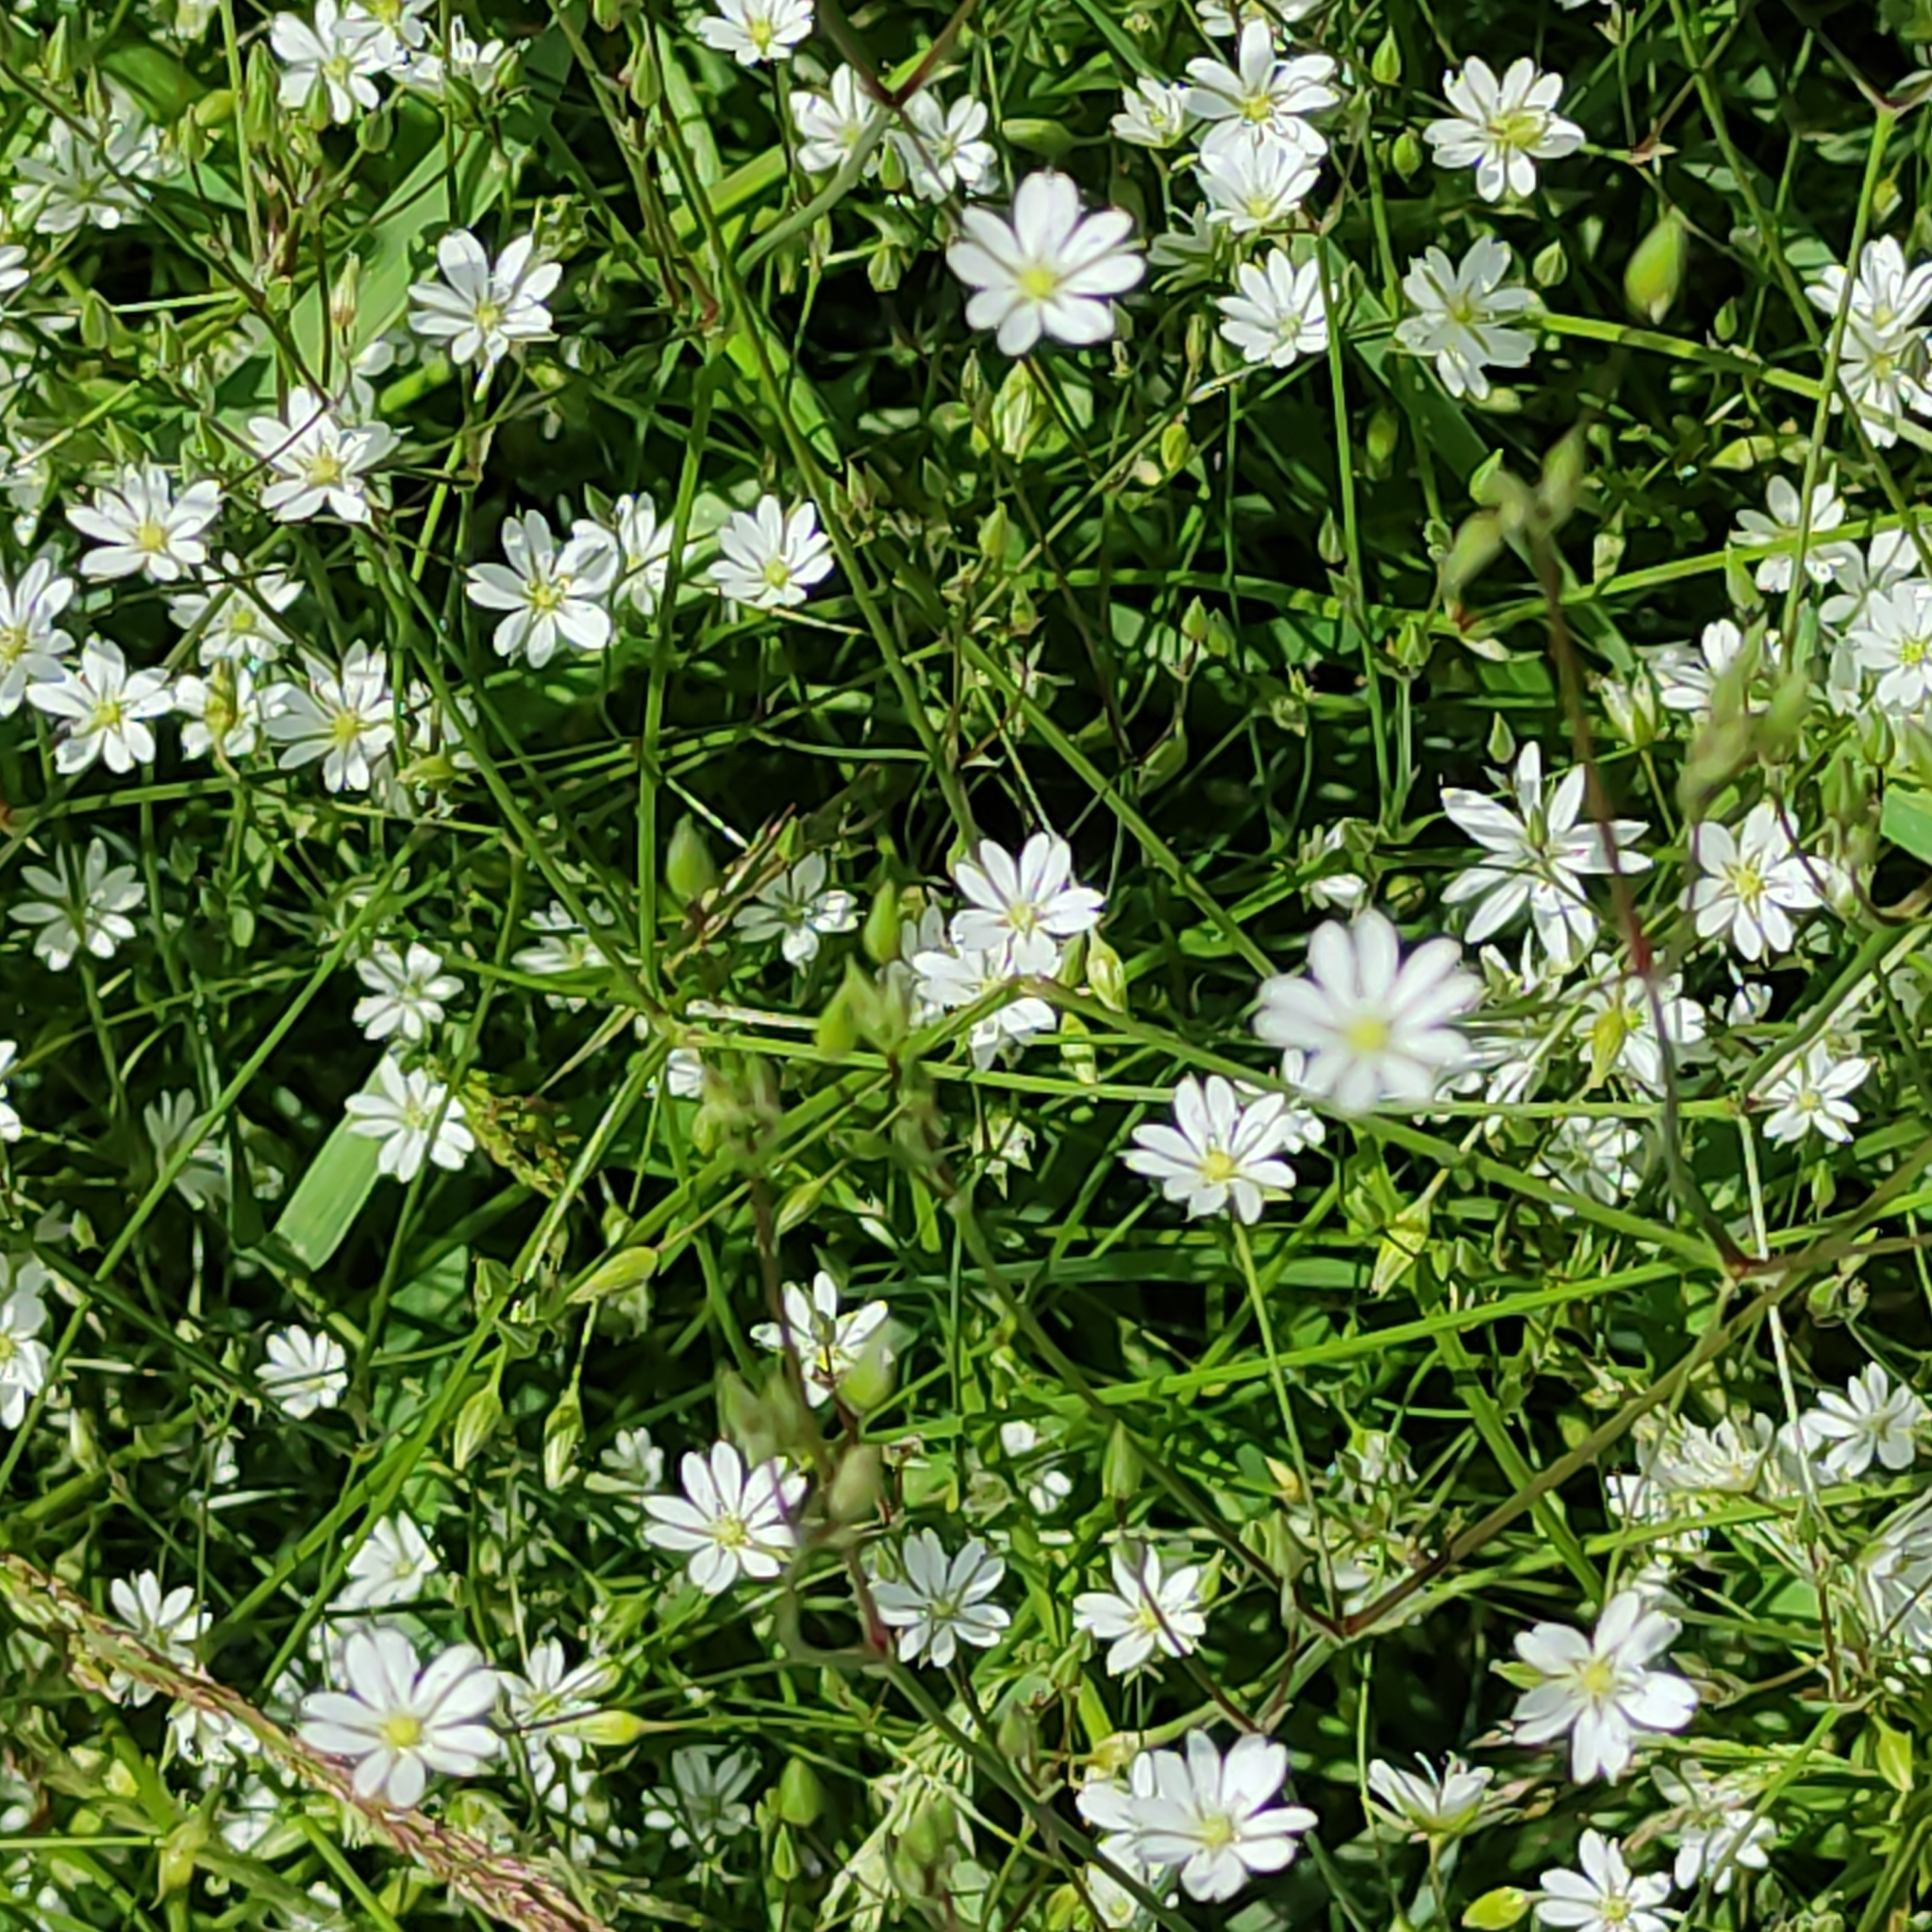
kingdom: Plantae
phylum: Tracheophyta
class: Magnoliopsida
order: Caryophyllales
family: Caryophyllaceae
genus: Stellaria
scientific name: Stellaria graminea
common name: Grass-like starwort
